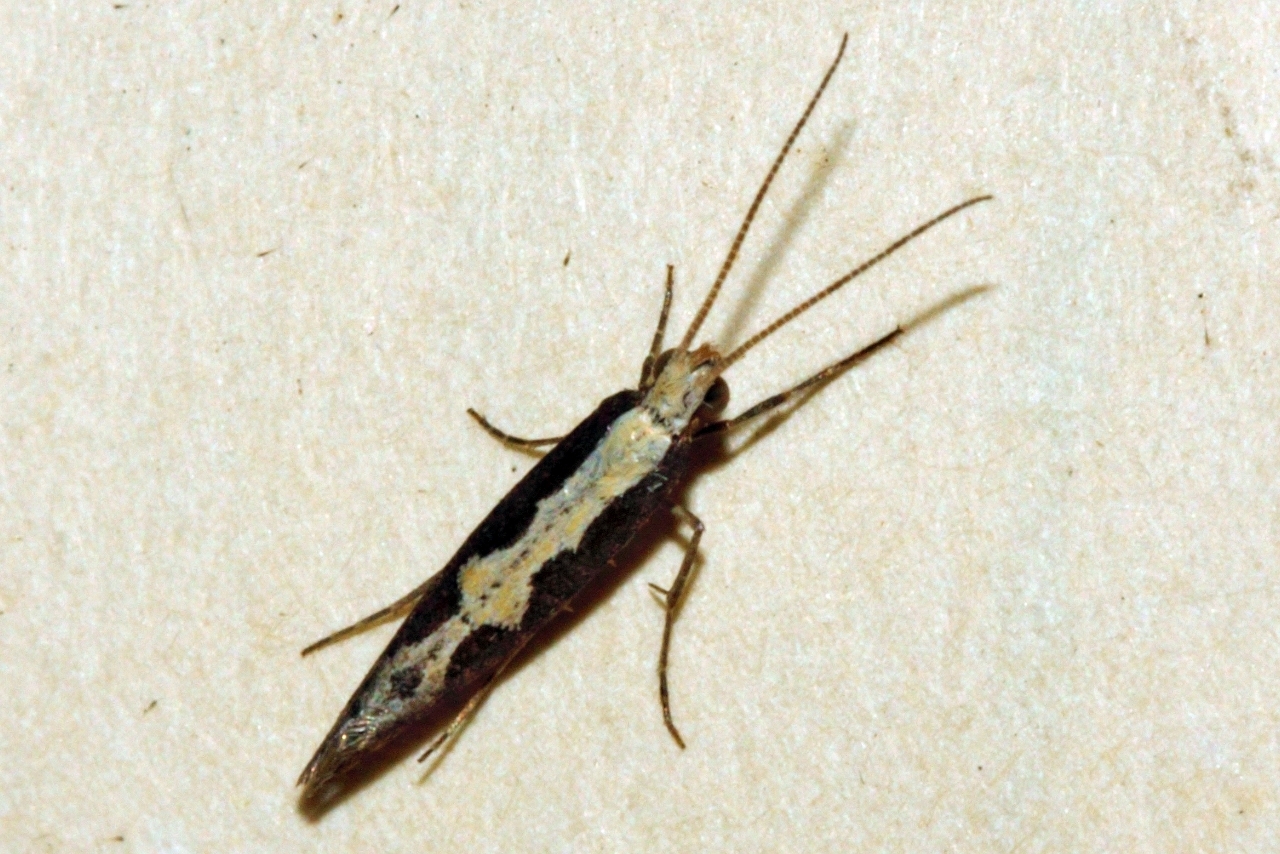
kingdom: Animalia
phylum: Arthropoda
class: Insecta
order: Lepidoptera
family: Plutellidae
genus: Plutella
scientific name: Plutella xylostella
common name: Diamond-back moth
